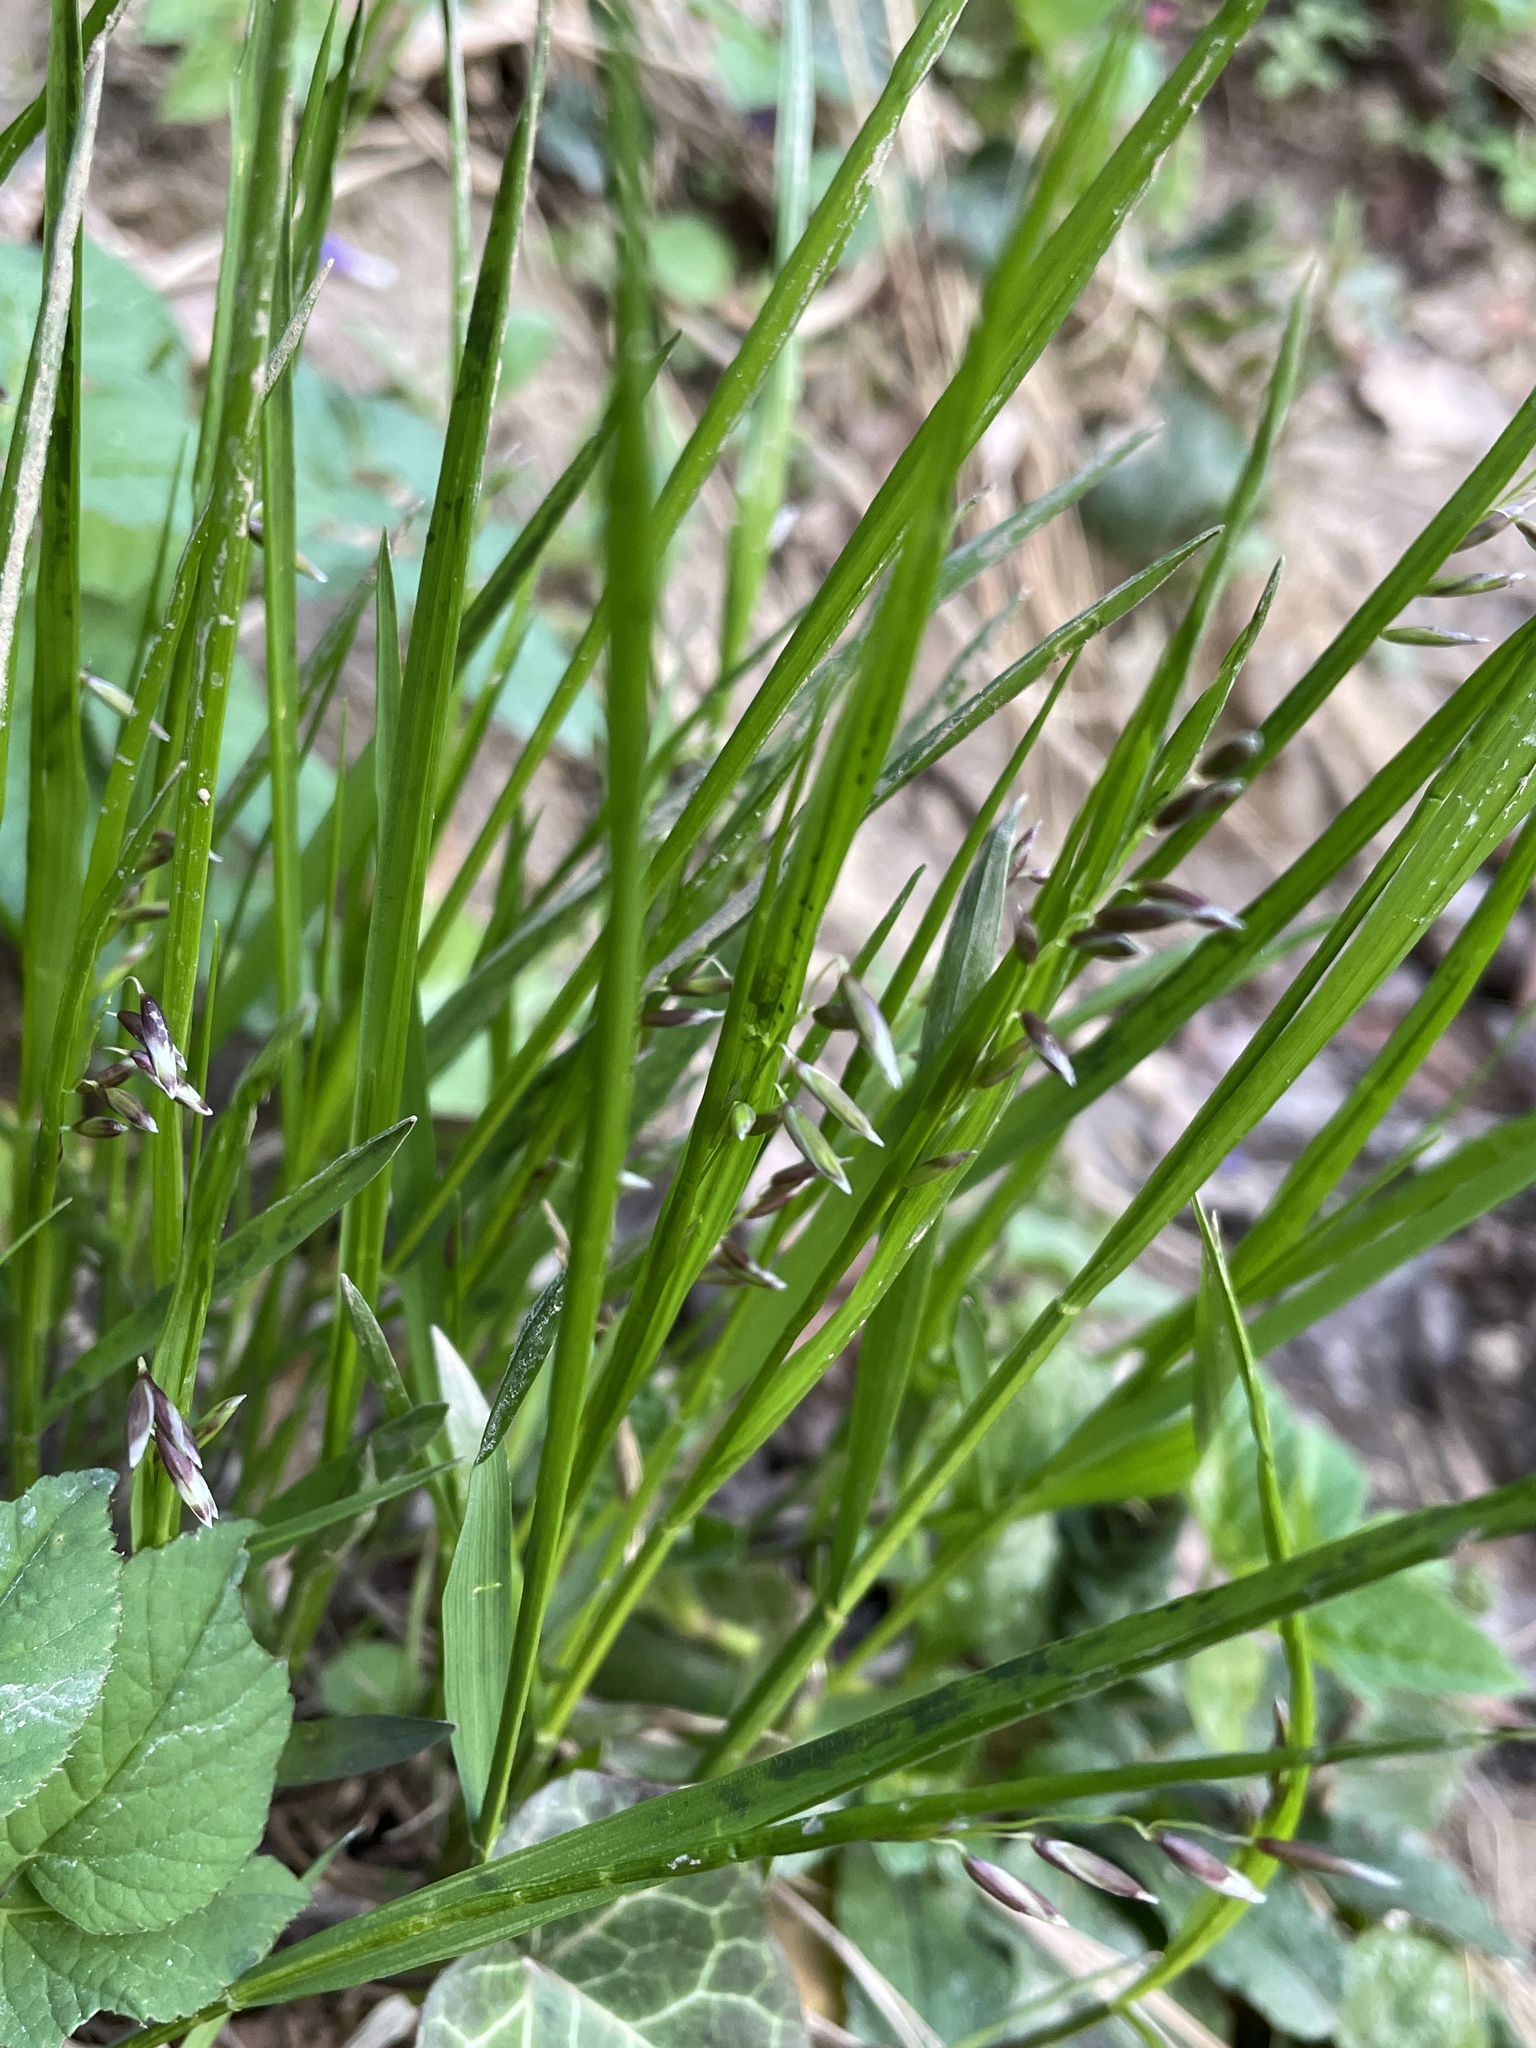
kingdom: Plantae
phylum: Tracheophyta
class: Liliopsida
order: Poales
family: Poaceae
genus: Melica
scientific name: Melica nutans
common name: Mountain melick
